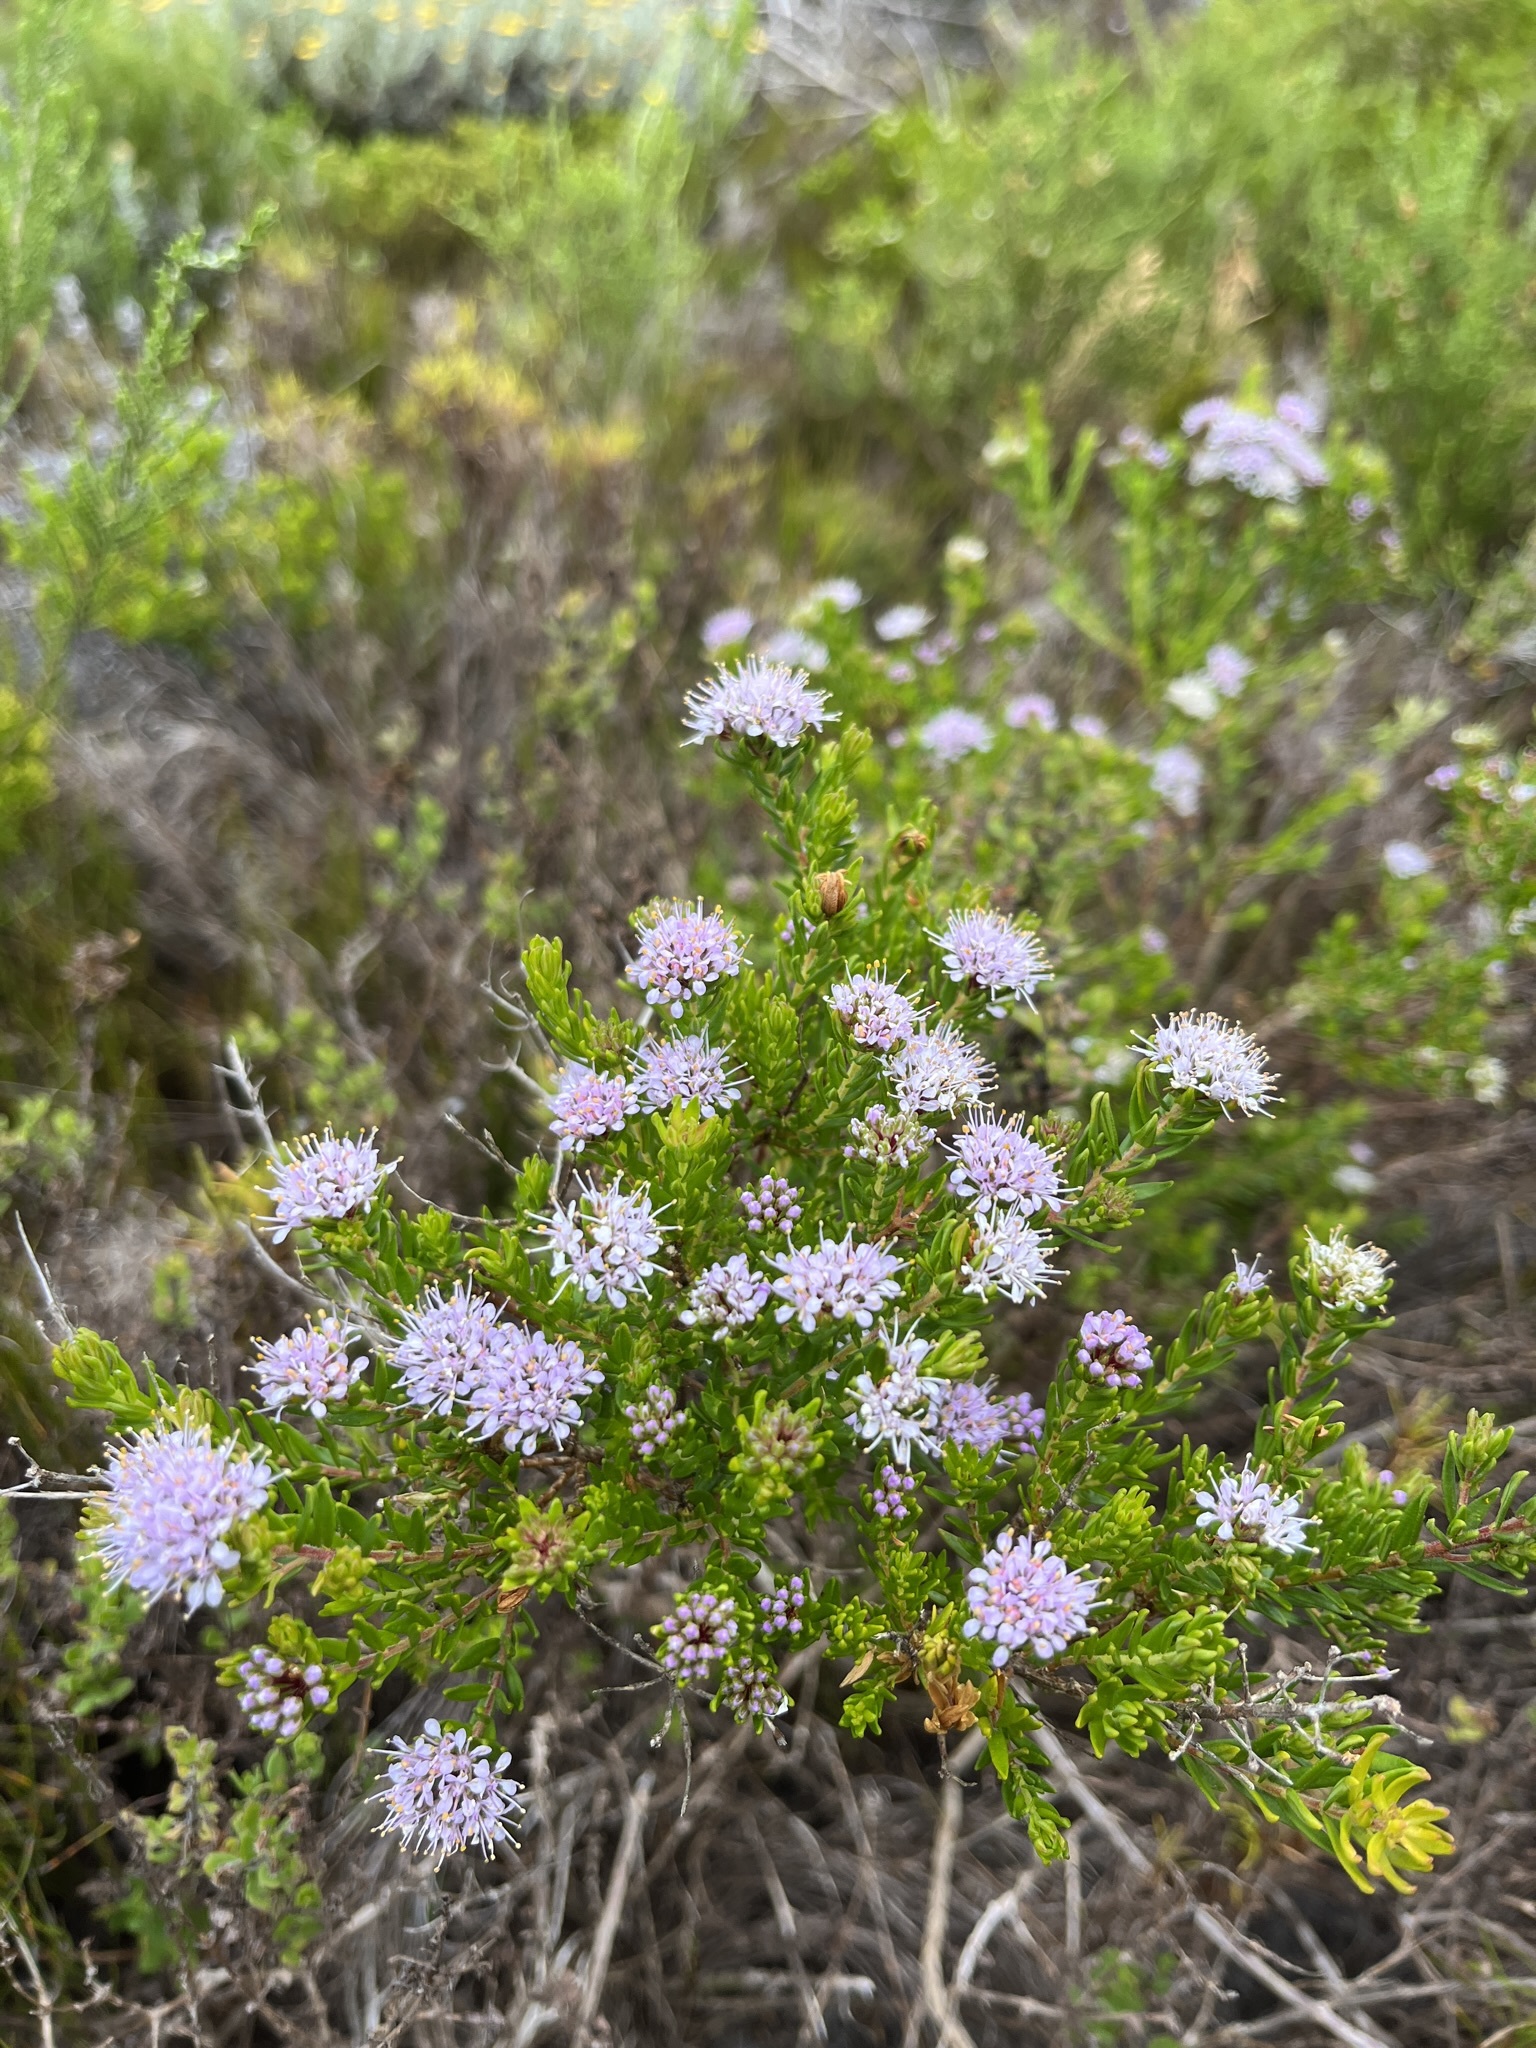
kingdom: Plantae
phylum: Tracheophyta
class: Magnoliopsida
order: Sapindales
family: Rutaceae
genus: Agathosma
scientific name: Agathosma bifida
